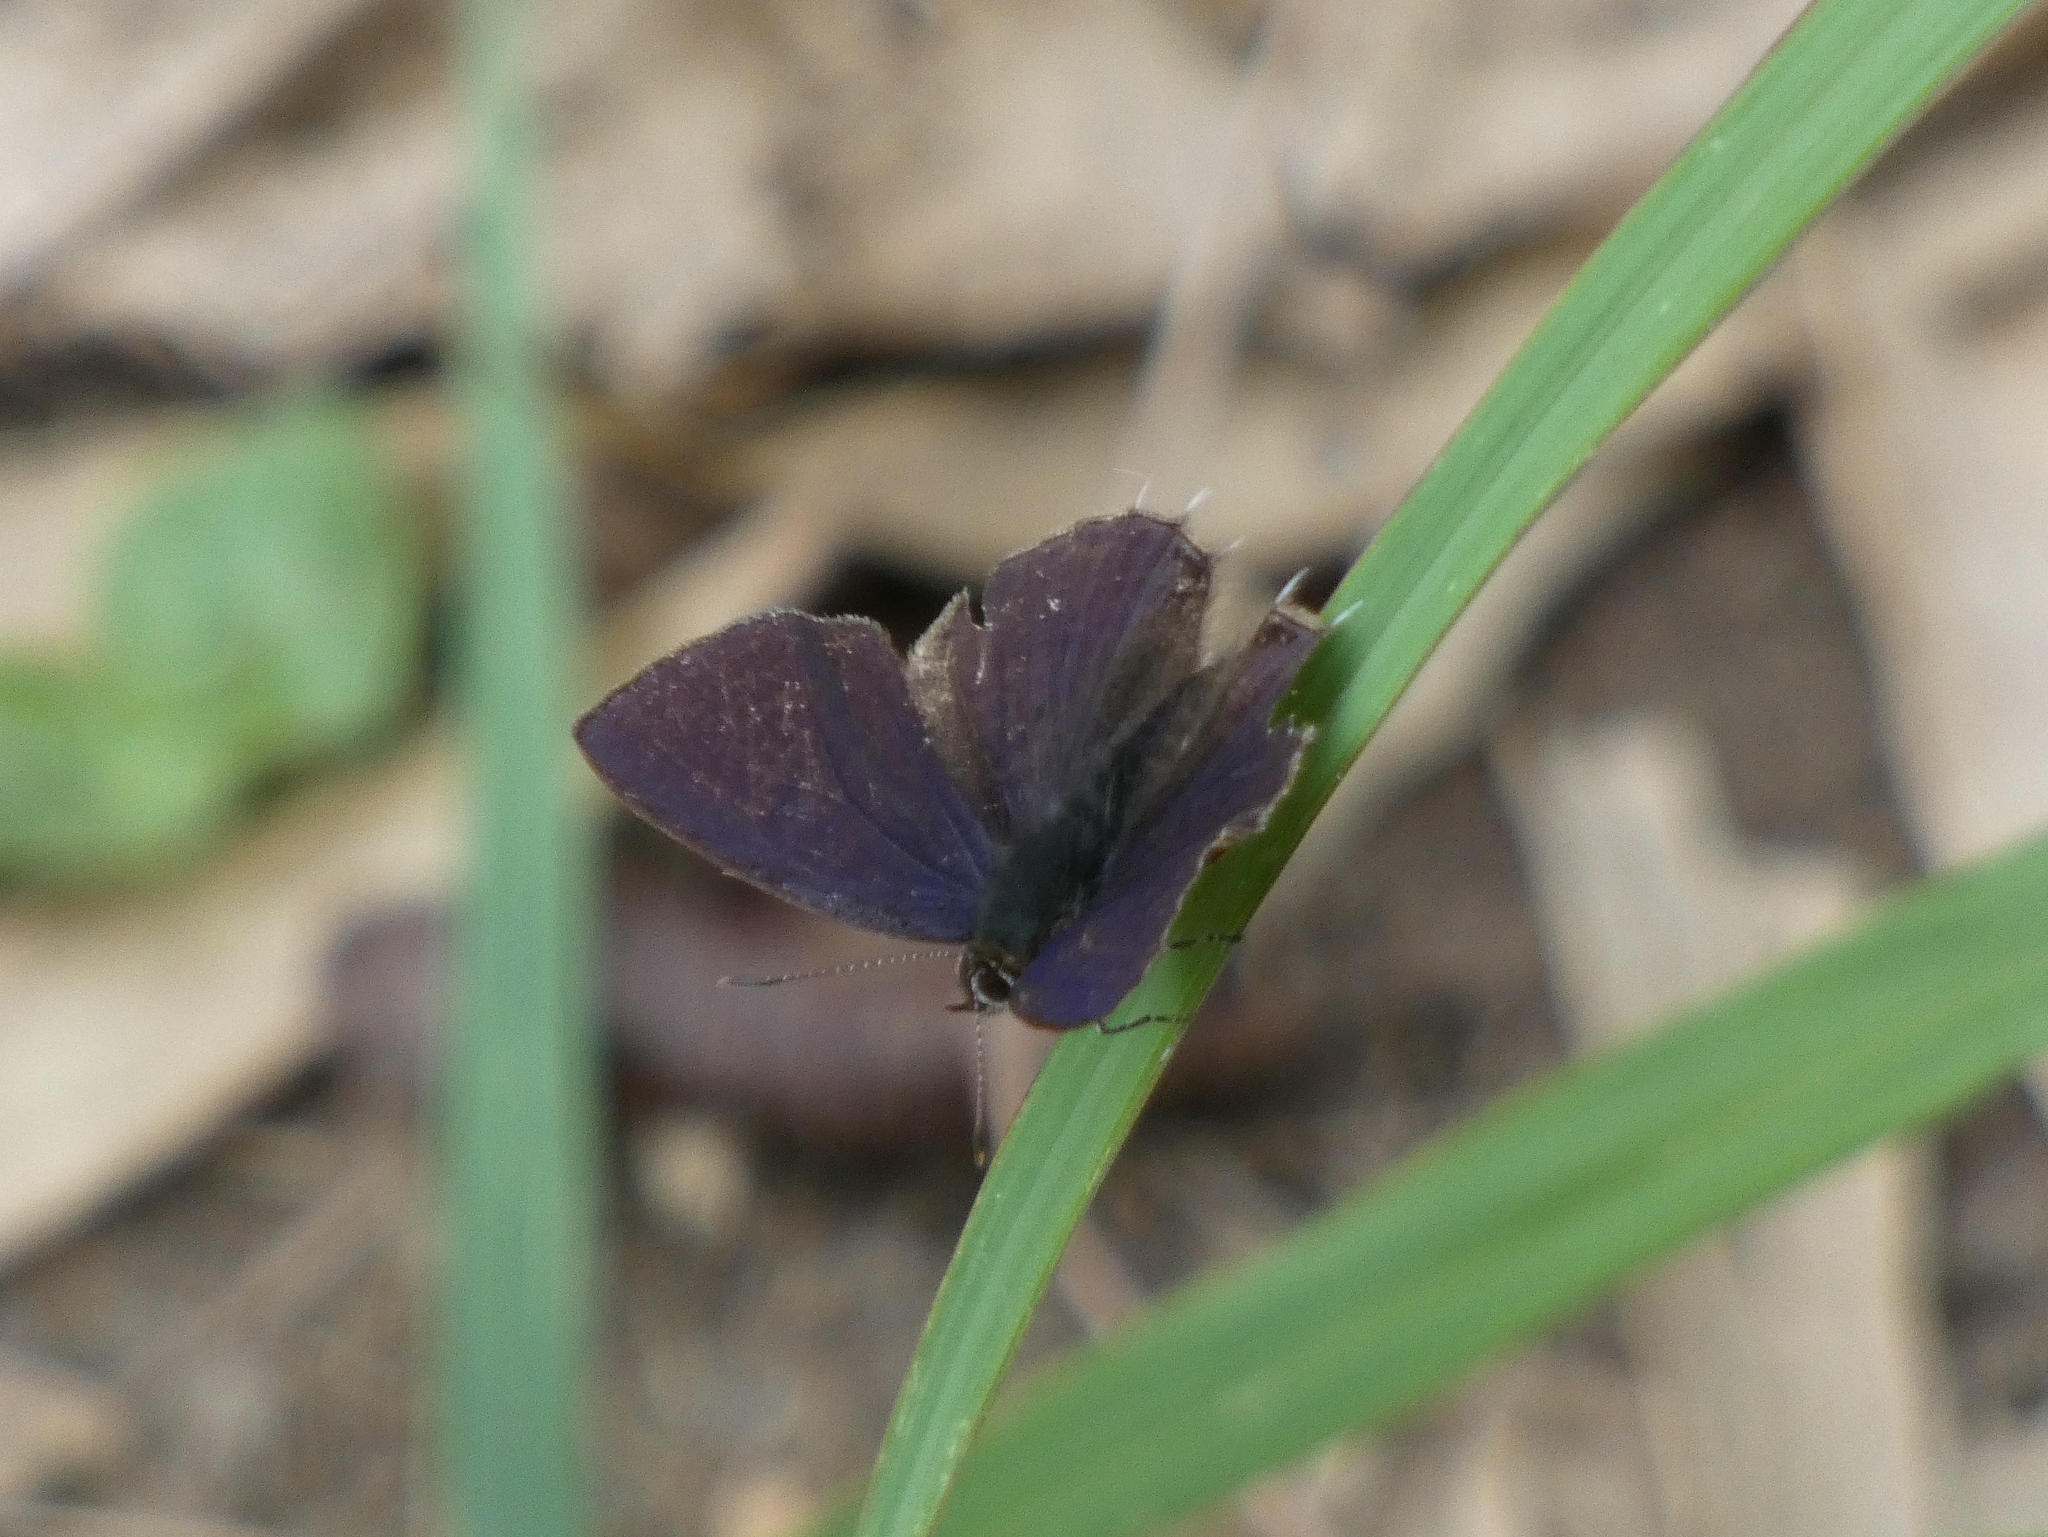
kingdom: Animalia
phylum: Arthropoda
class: Insecta
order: Lepidoptera
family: Lycaenidae
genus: Anthene
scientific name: Anthene larydas
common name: Forest hairtail
